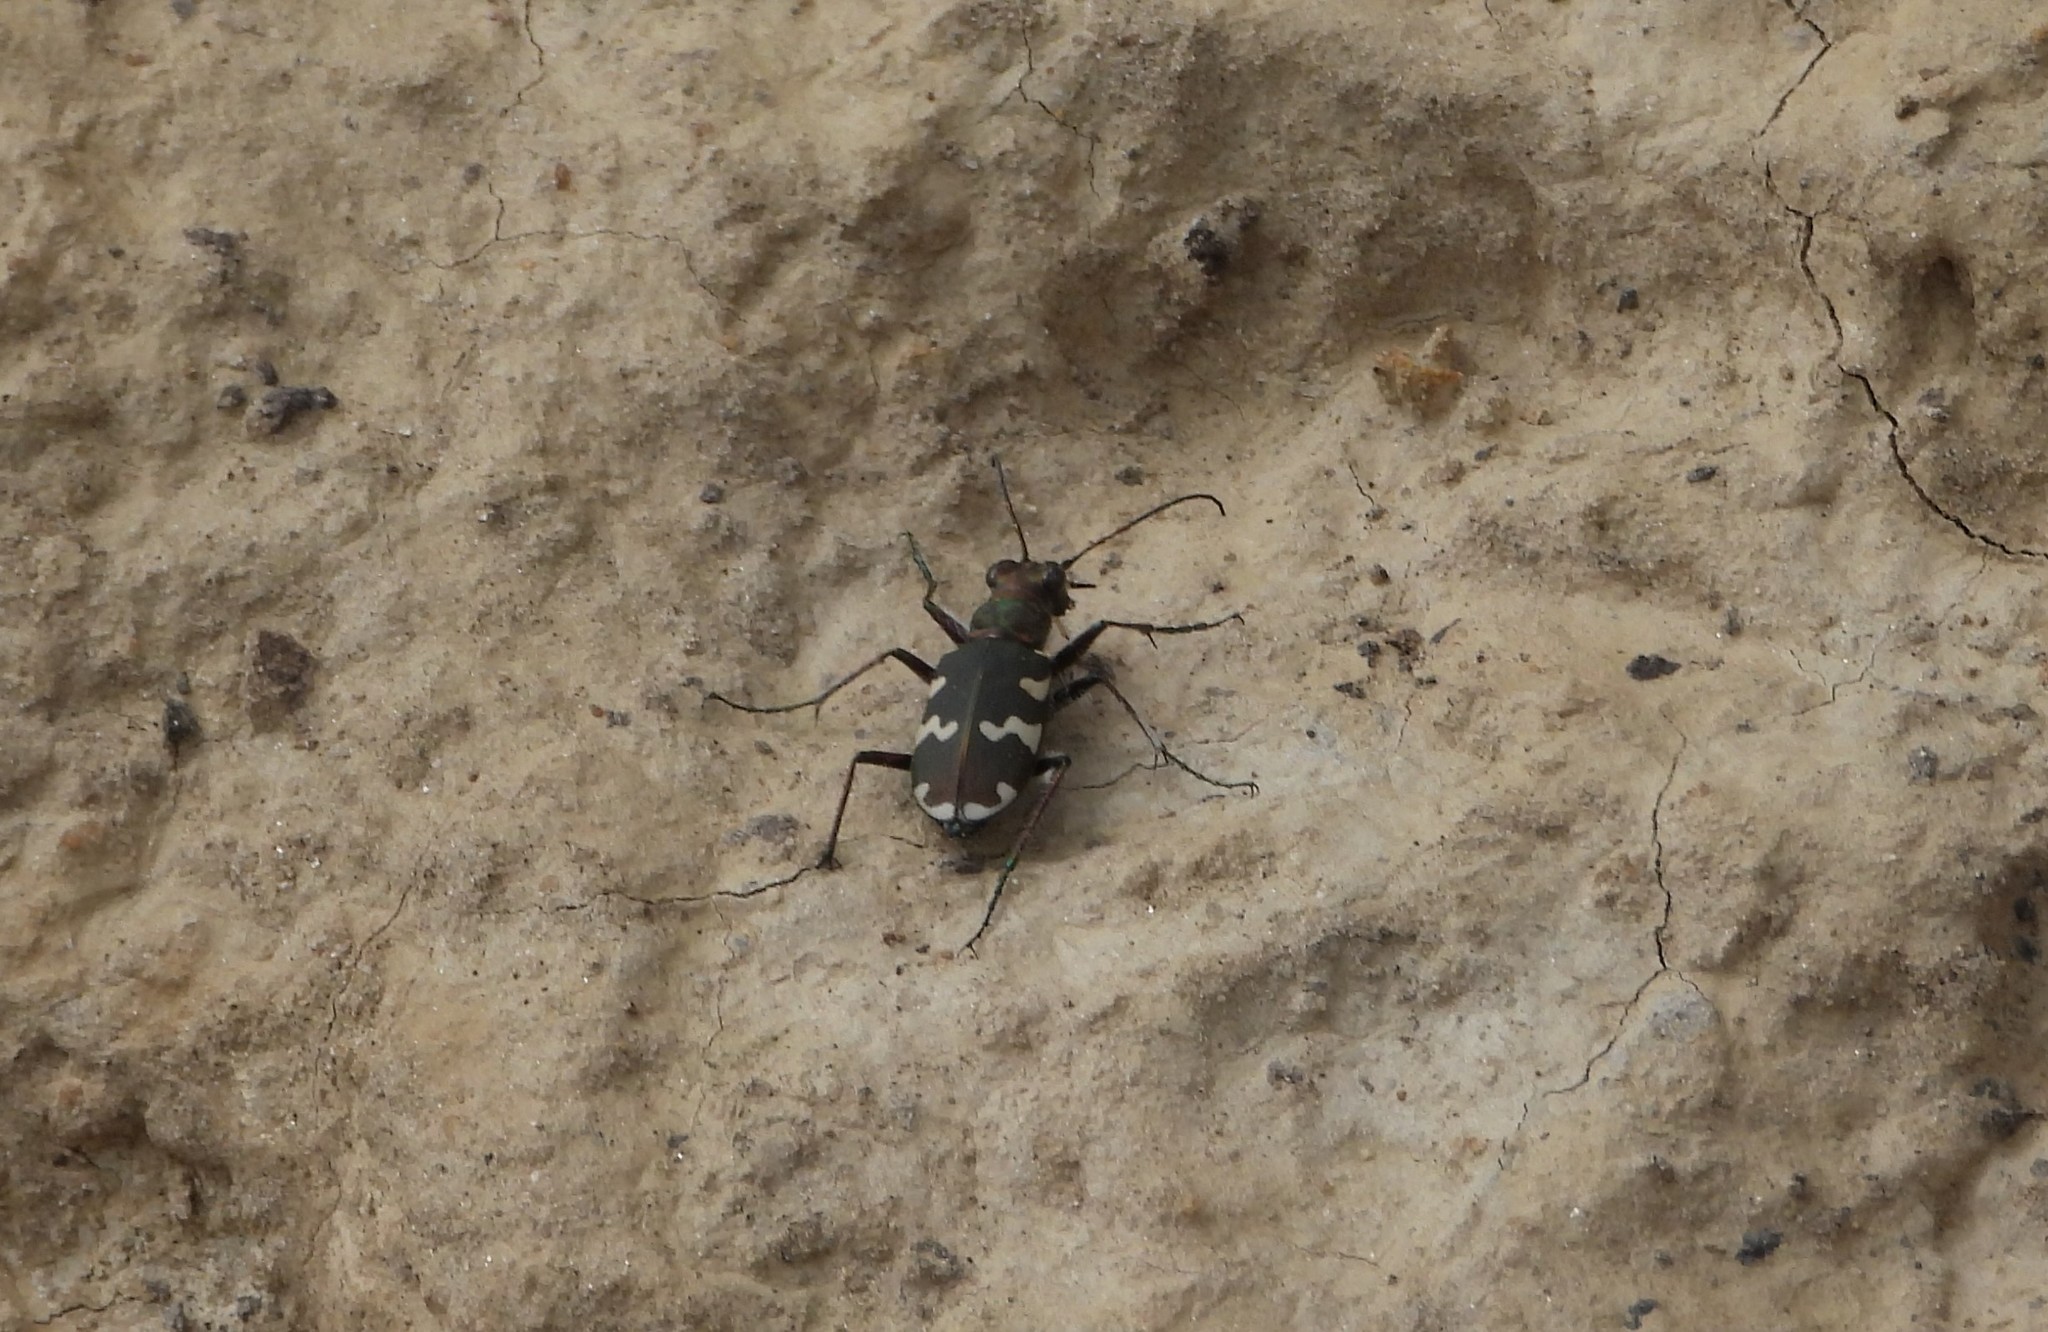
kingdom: Animalia
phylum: Arthropoda
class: Insecta
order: Coleoptera
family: Carabidae
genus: Cicindela
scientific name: Cicindela hybrida
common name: Northern dune tiger beetle
